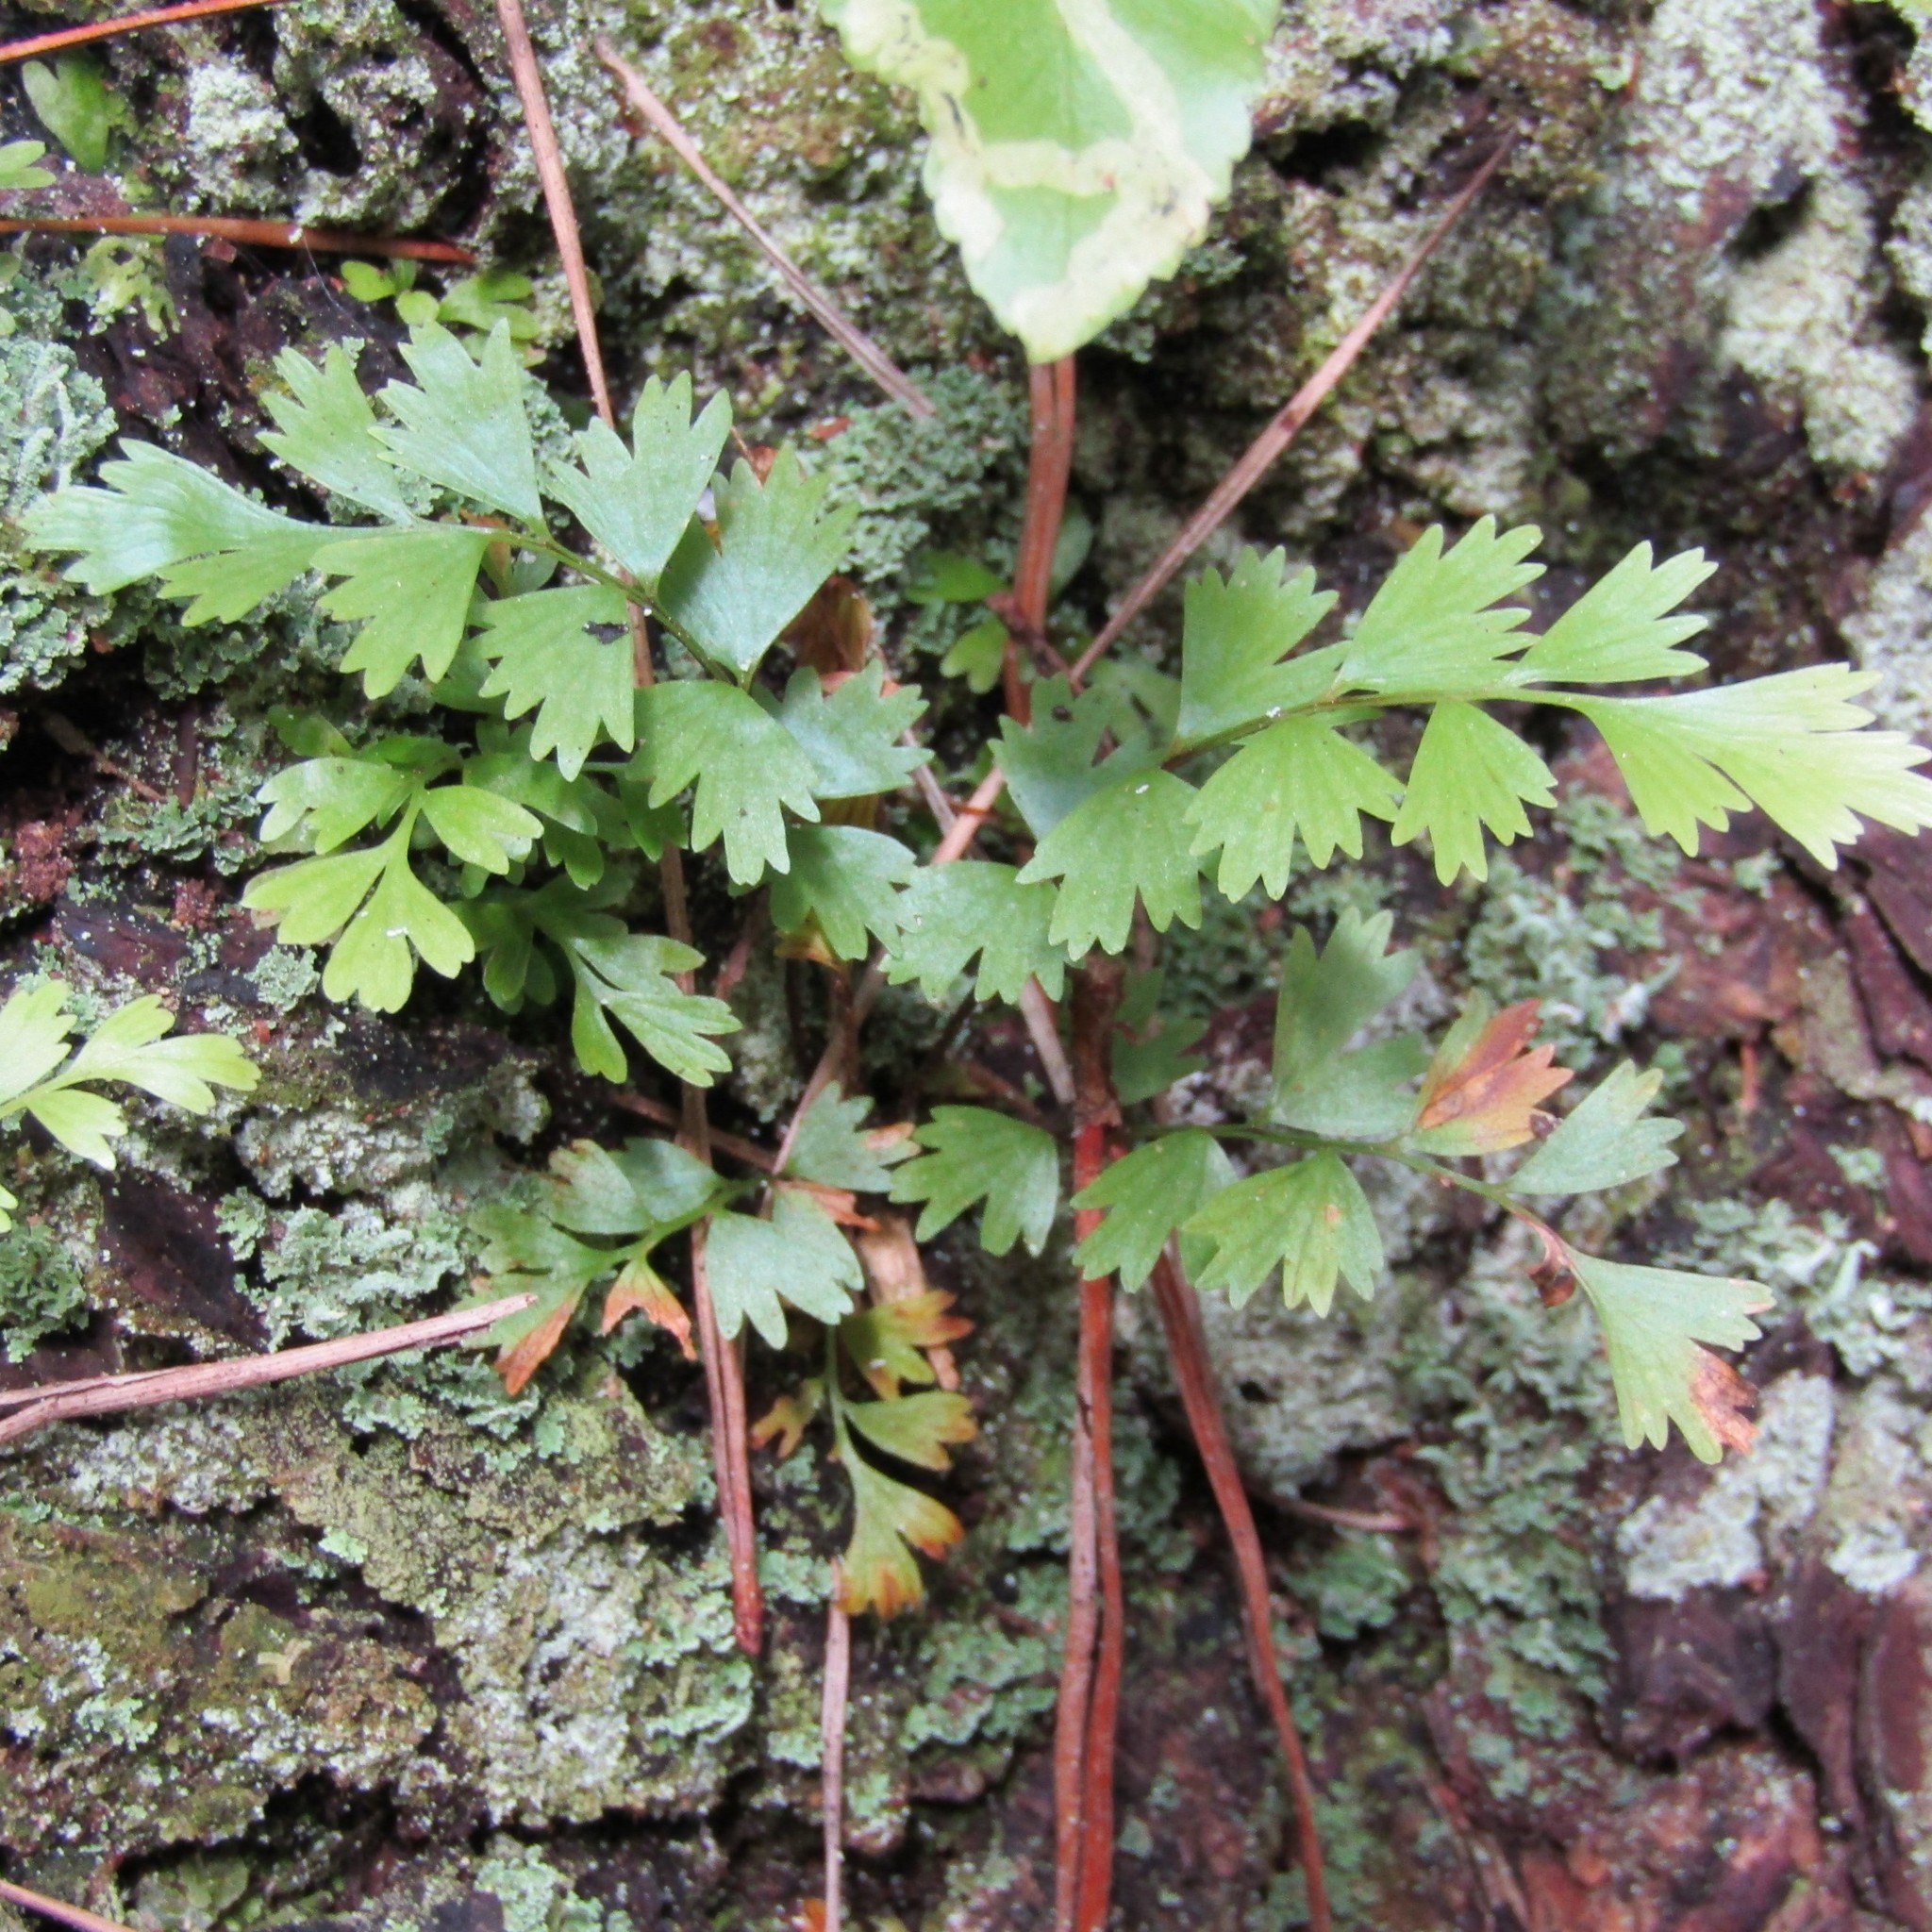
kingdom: Plantae
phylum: Tracheophyta
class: Polypodiopsida
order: Polypodiales
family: Aspleniaceae
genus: Asplenium
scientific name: Asplenium polyodon
